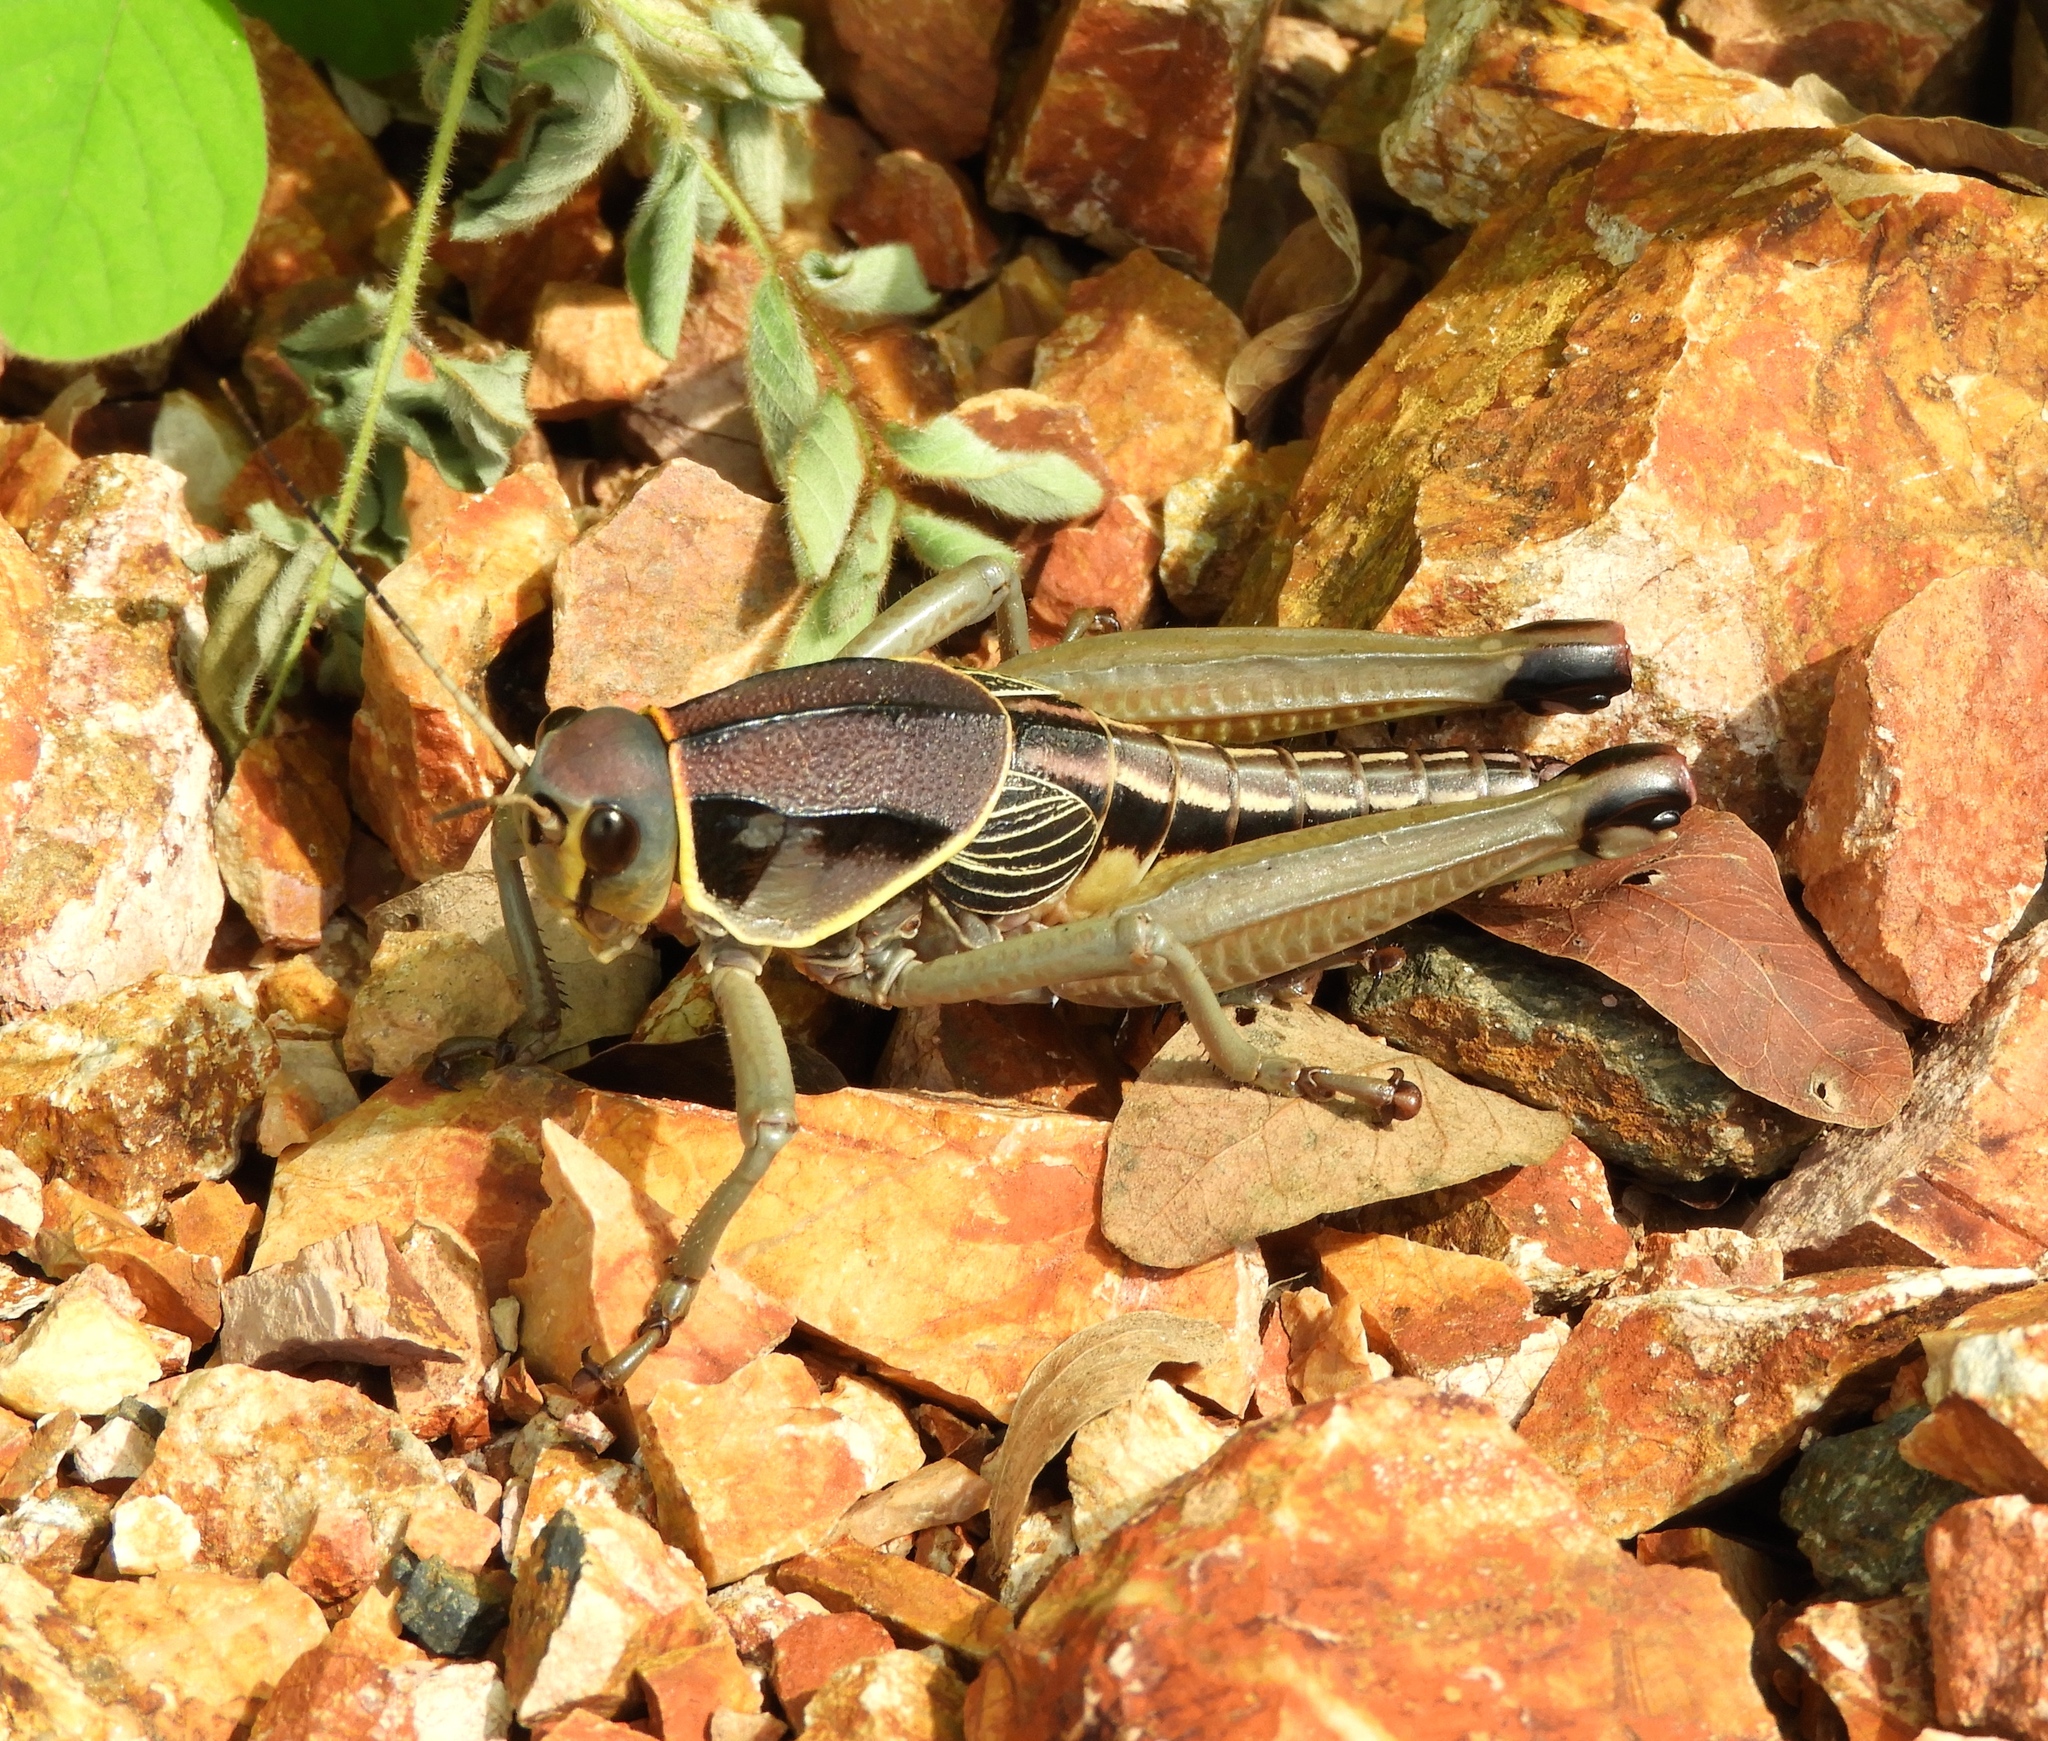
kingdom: Animalia
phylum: Arthropoda
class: Insecta
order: Orthoptera
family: Romaleidae
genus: Brachystola
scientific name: Brachystola behrensii
